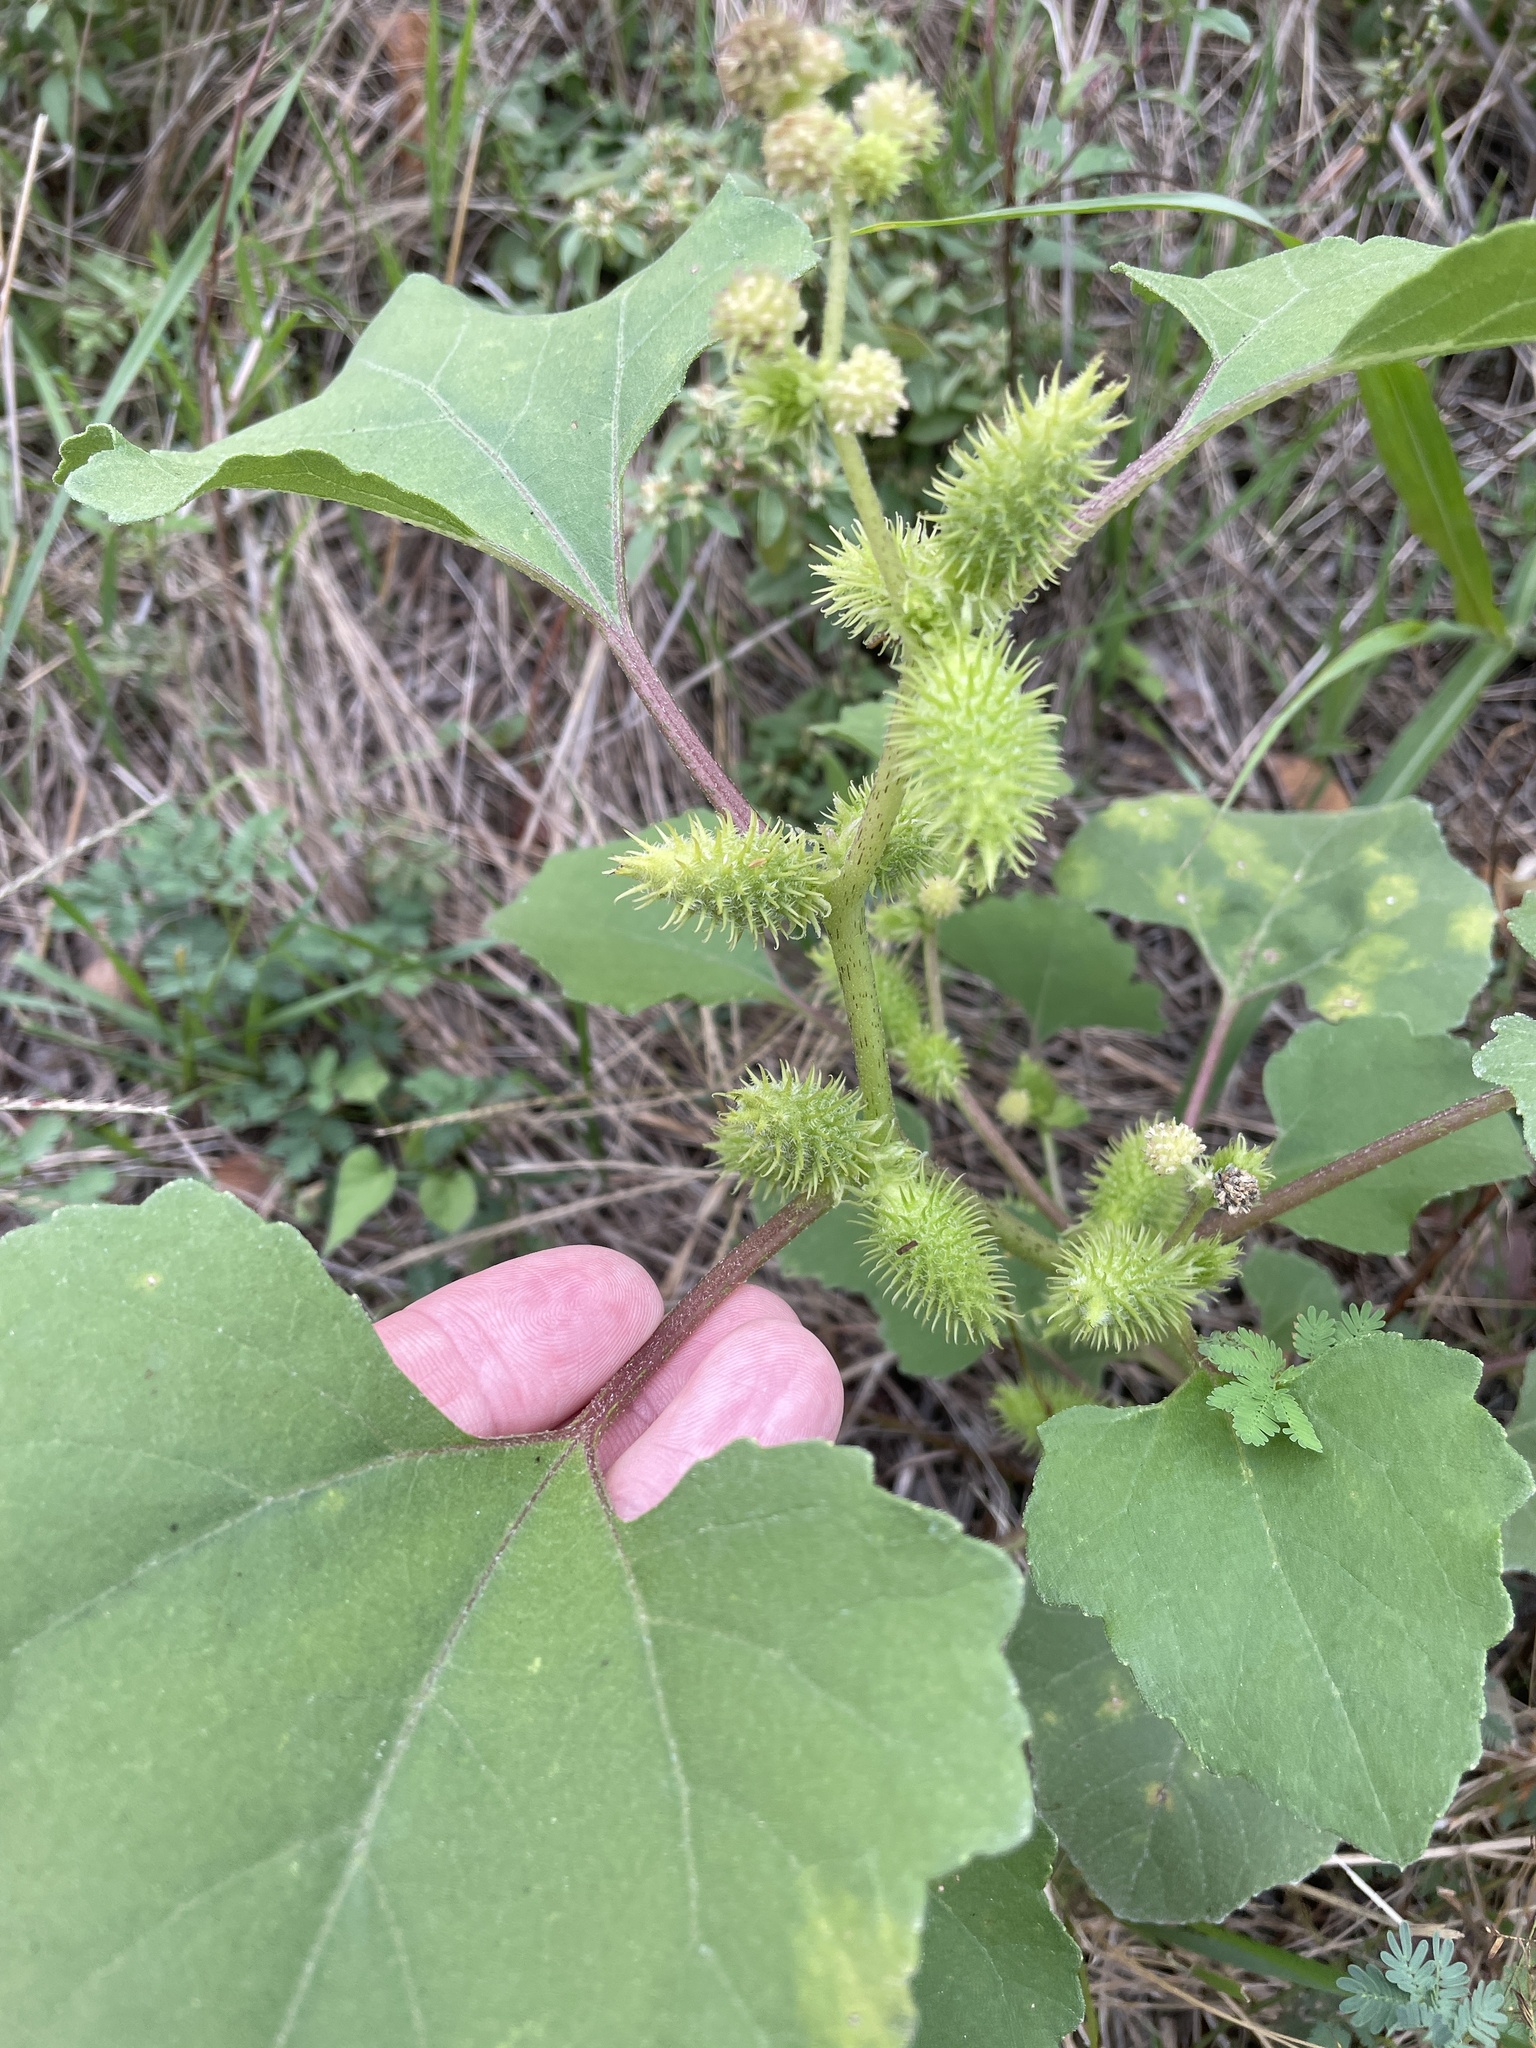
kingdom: Plantae
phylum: Tracheophyta
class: Magnoliopsida
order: Asterales
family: Asteraceae
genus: Xanthium
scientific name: Xanthium strumarium
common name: Rough cocklebur
